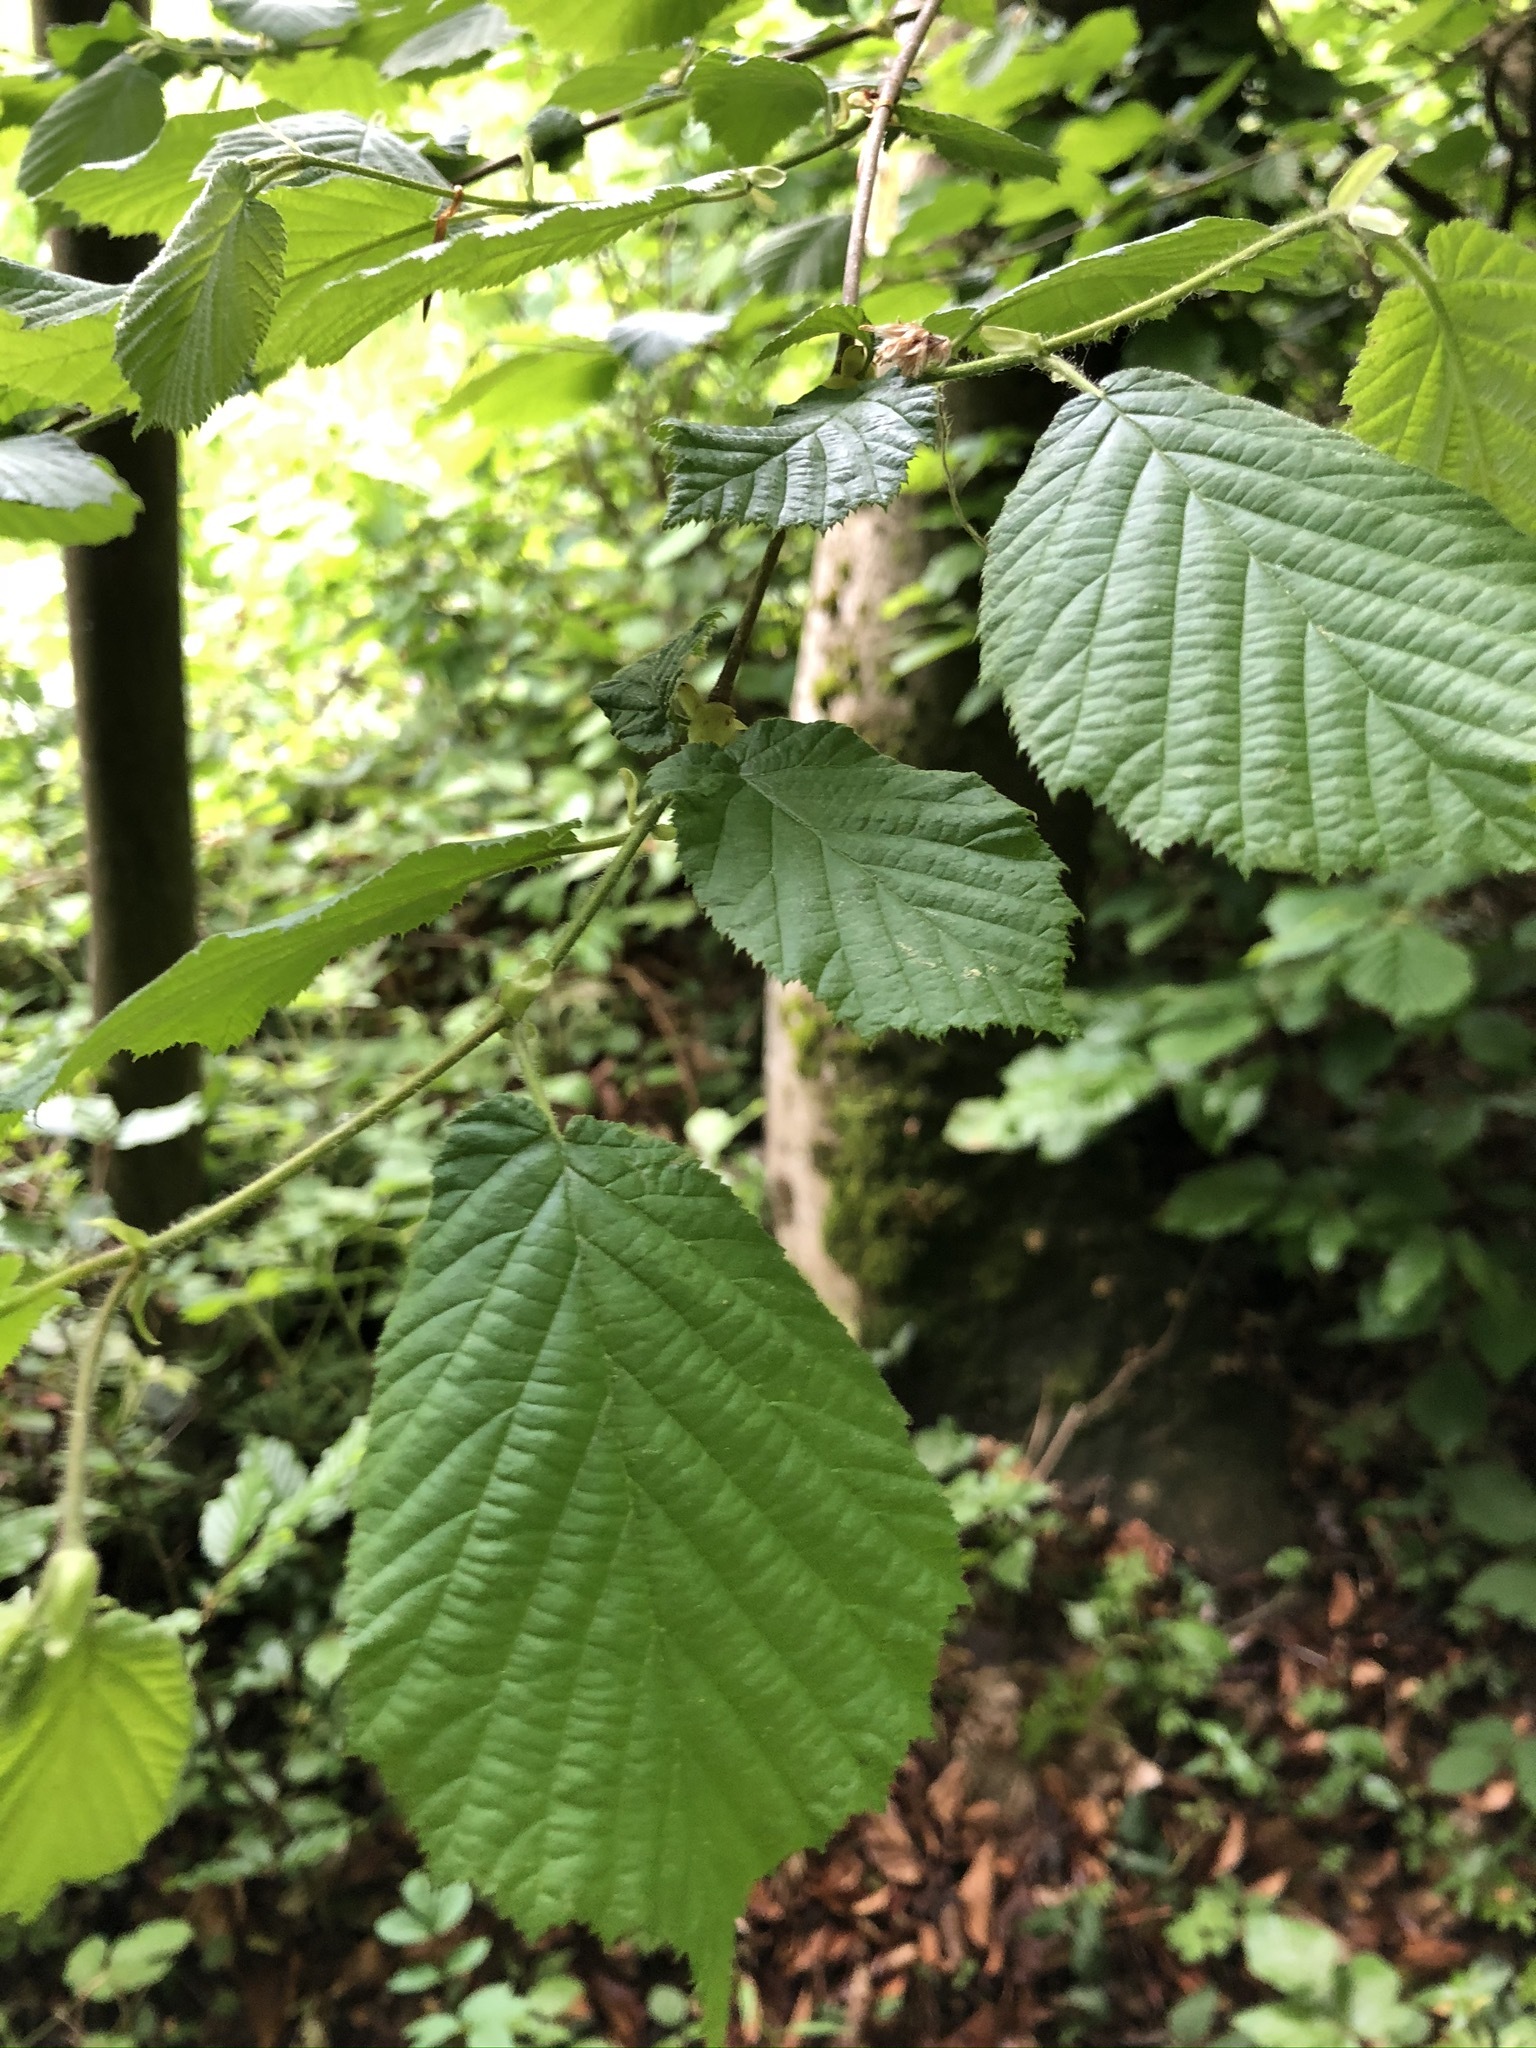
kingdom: Plantae
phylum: Tracheophyta
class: Magnoliopsida
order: Fagales
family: Betulaceae
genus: Corylus
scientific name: Corylus avellana
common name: European hazel
